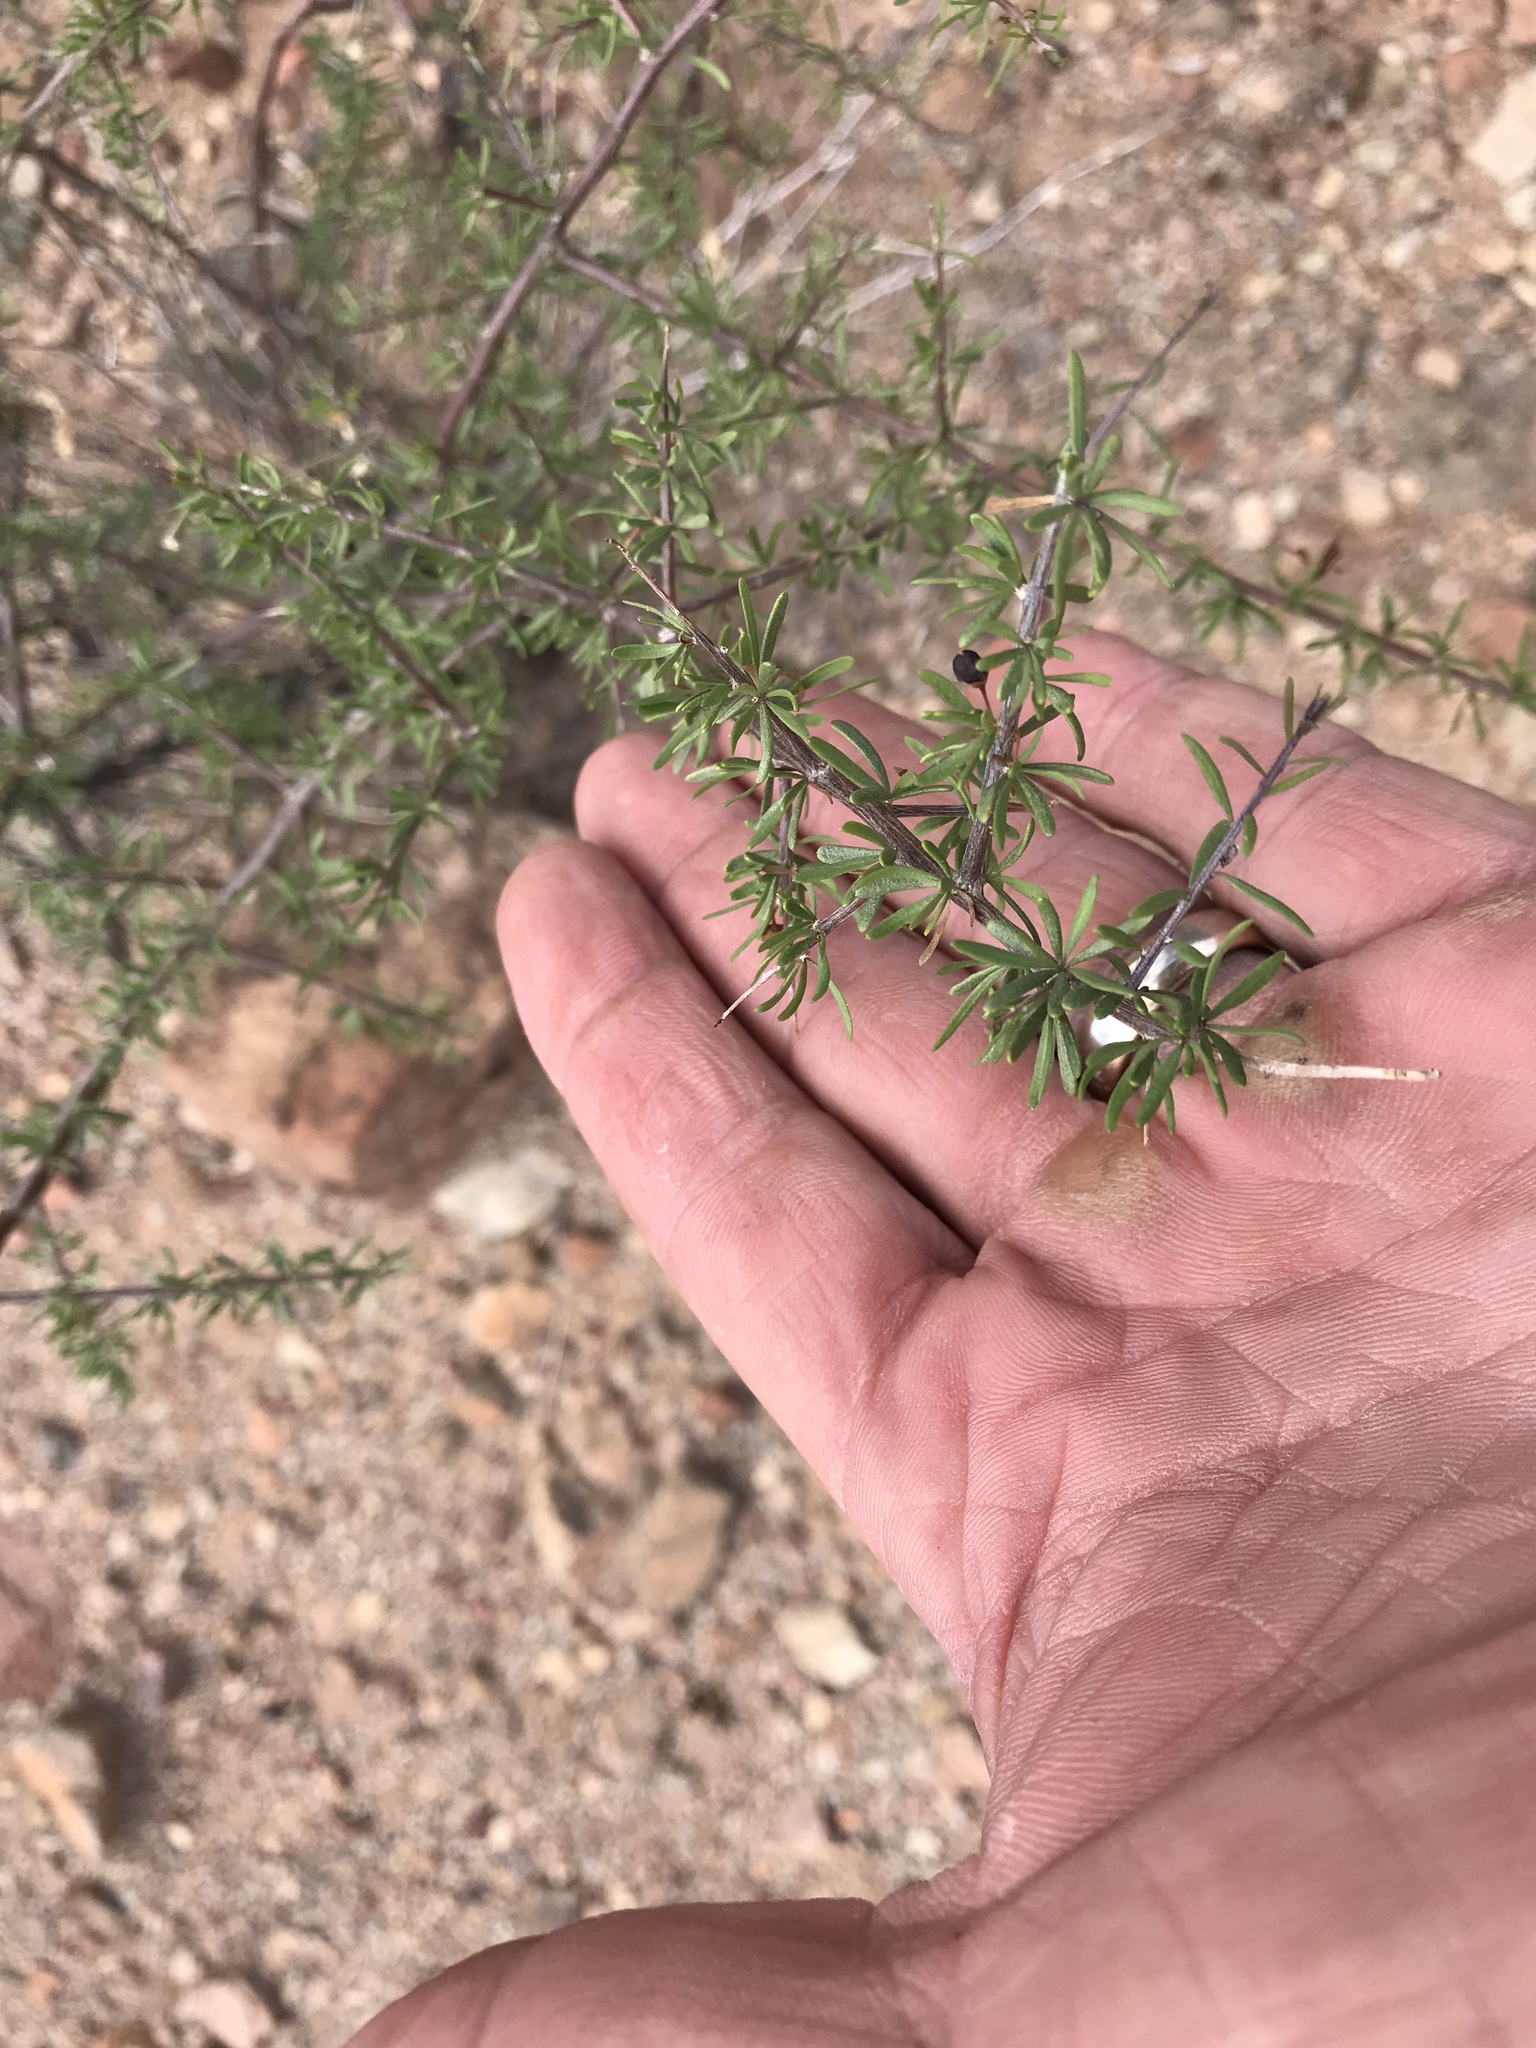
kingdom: Plantae
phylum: Tracheophyta
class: Magnoliopsida
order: Solanales
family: Solanaceae
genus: Lycium
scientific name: Lycium berlandieri
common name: Berlandier wolfberry
